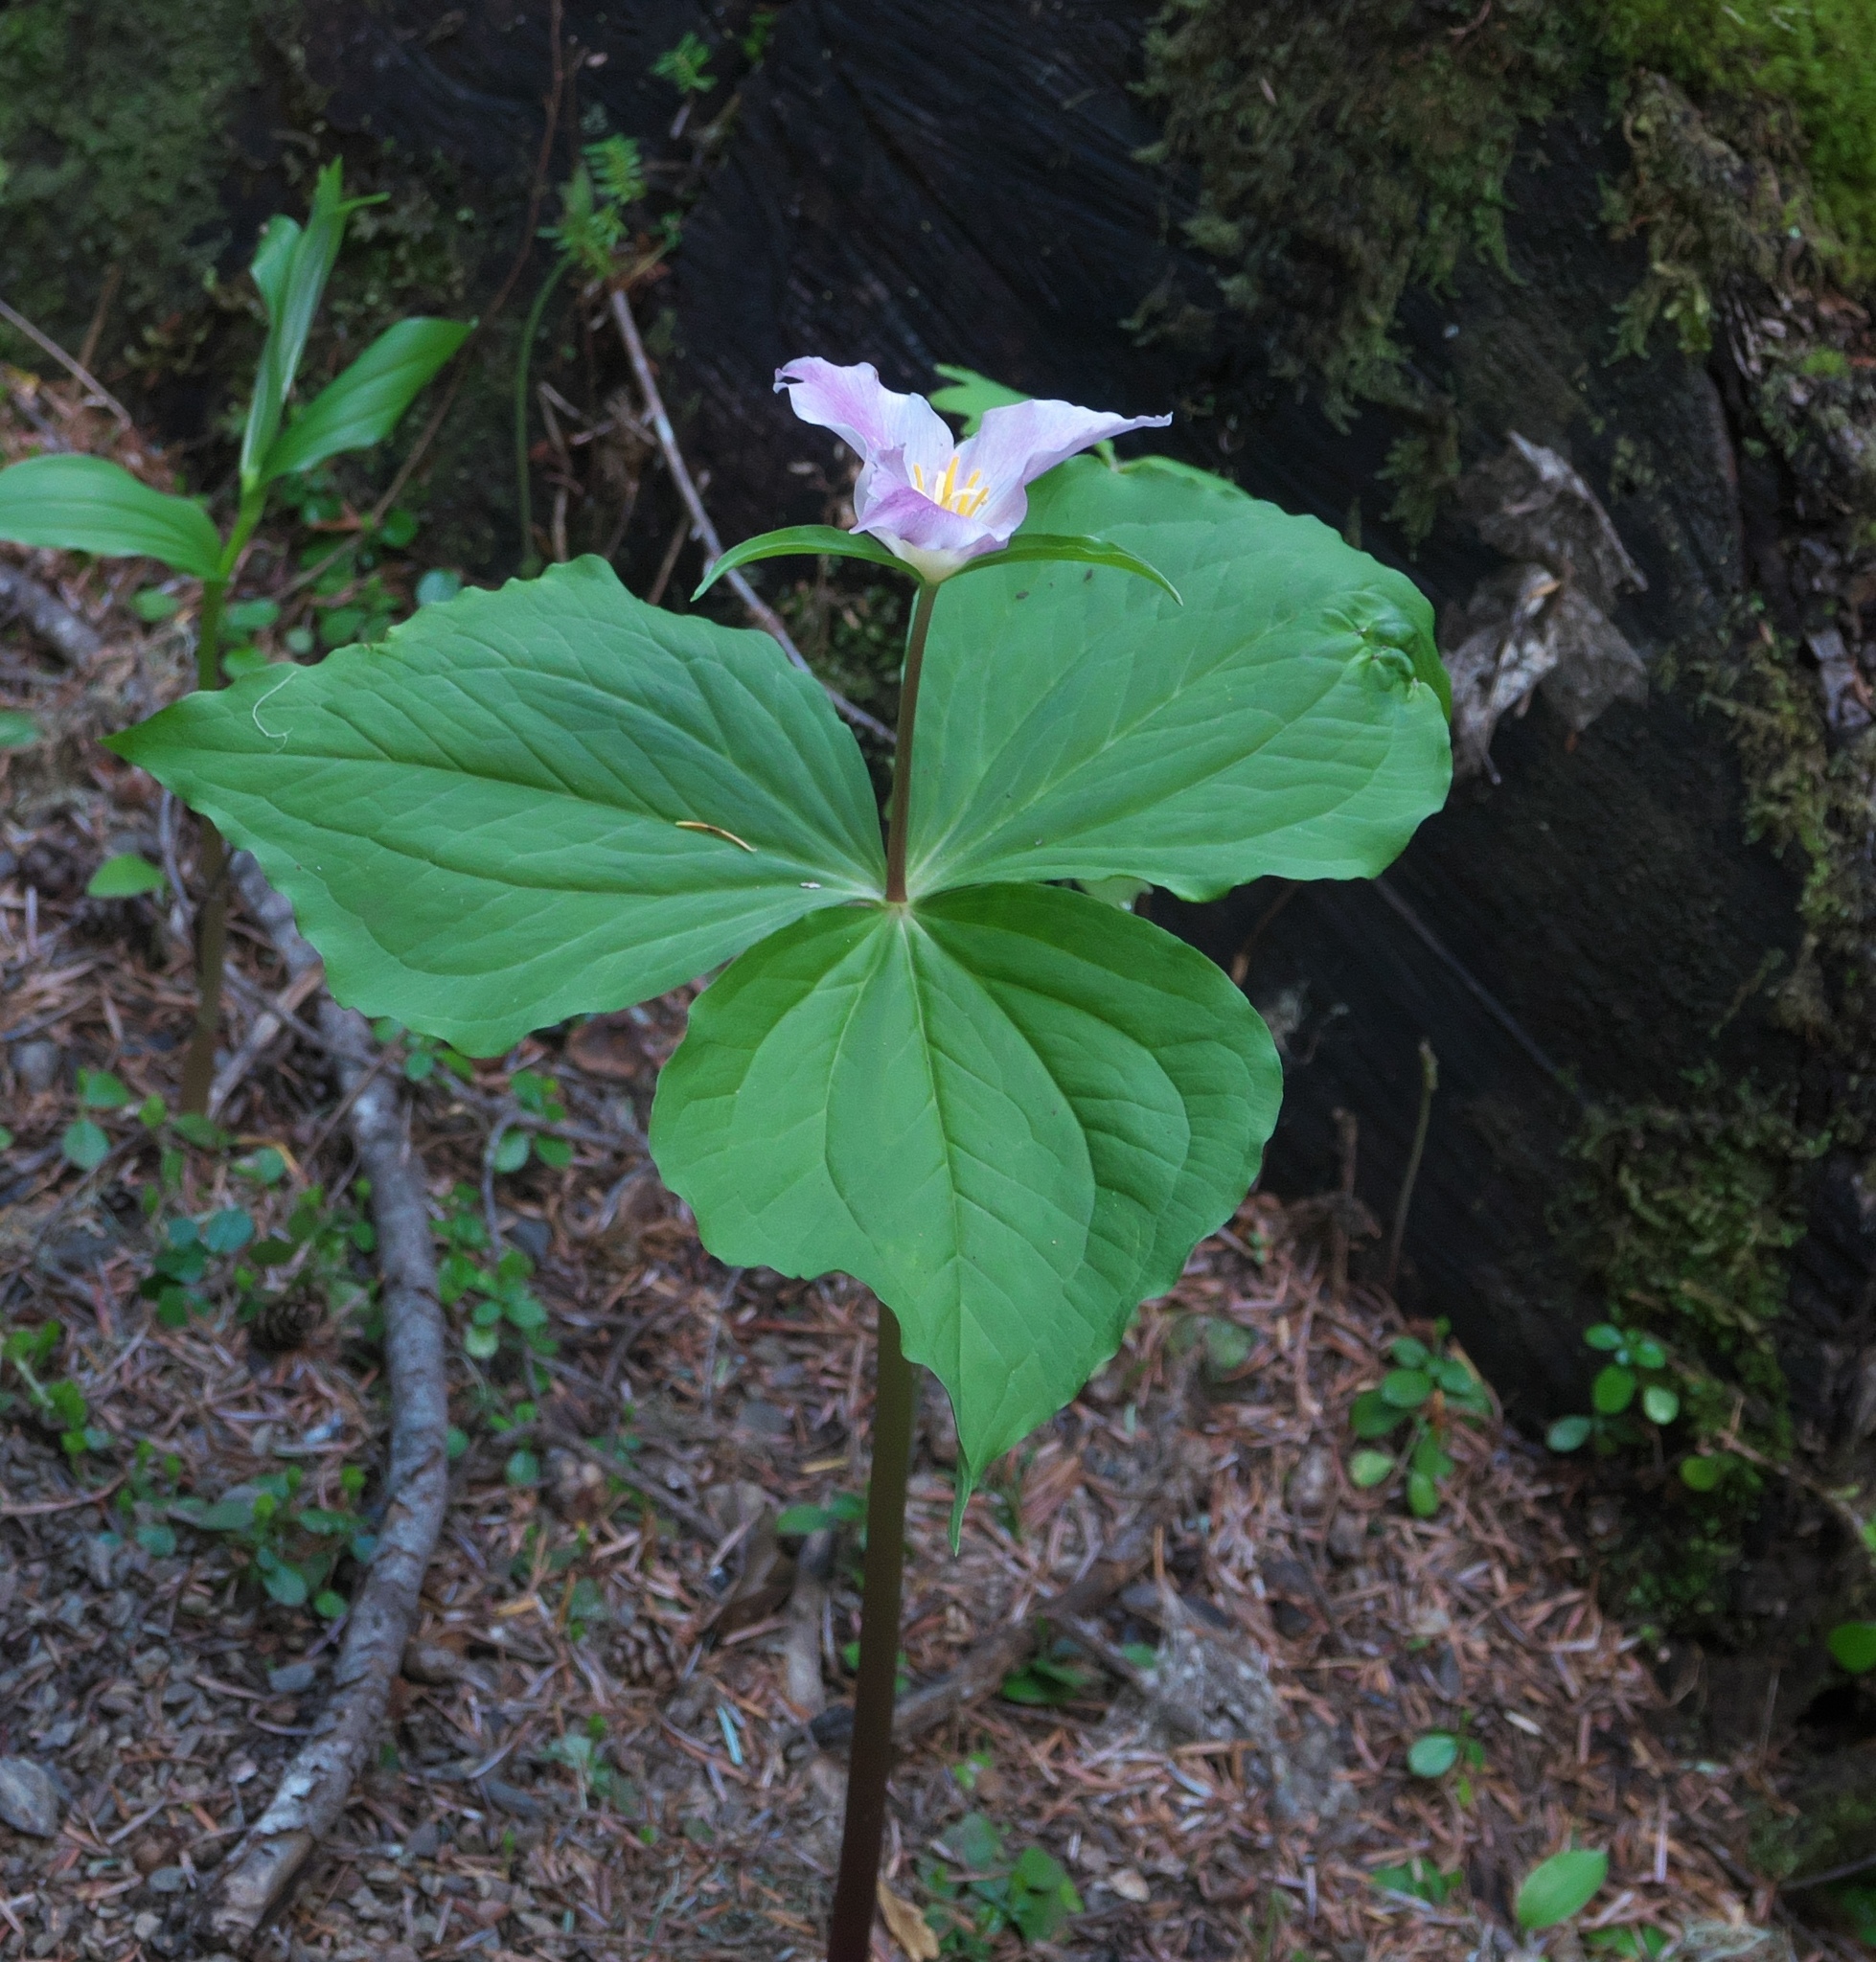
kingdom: Plantae
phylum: Tracheophyta
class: Liliopsida
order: Liliales
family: Melanthiaceae
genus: Trillium
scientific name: Trillium ovatum
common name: Pacific trillium
